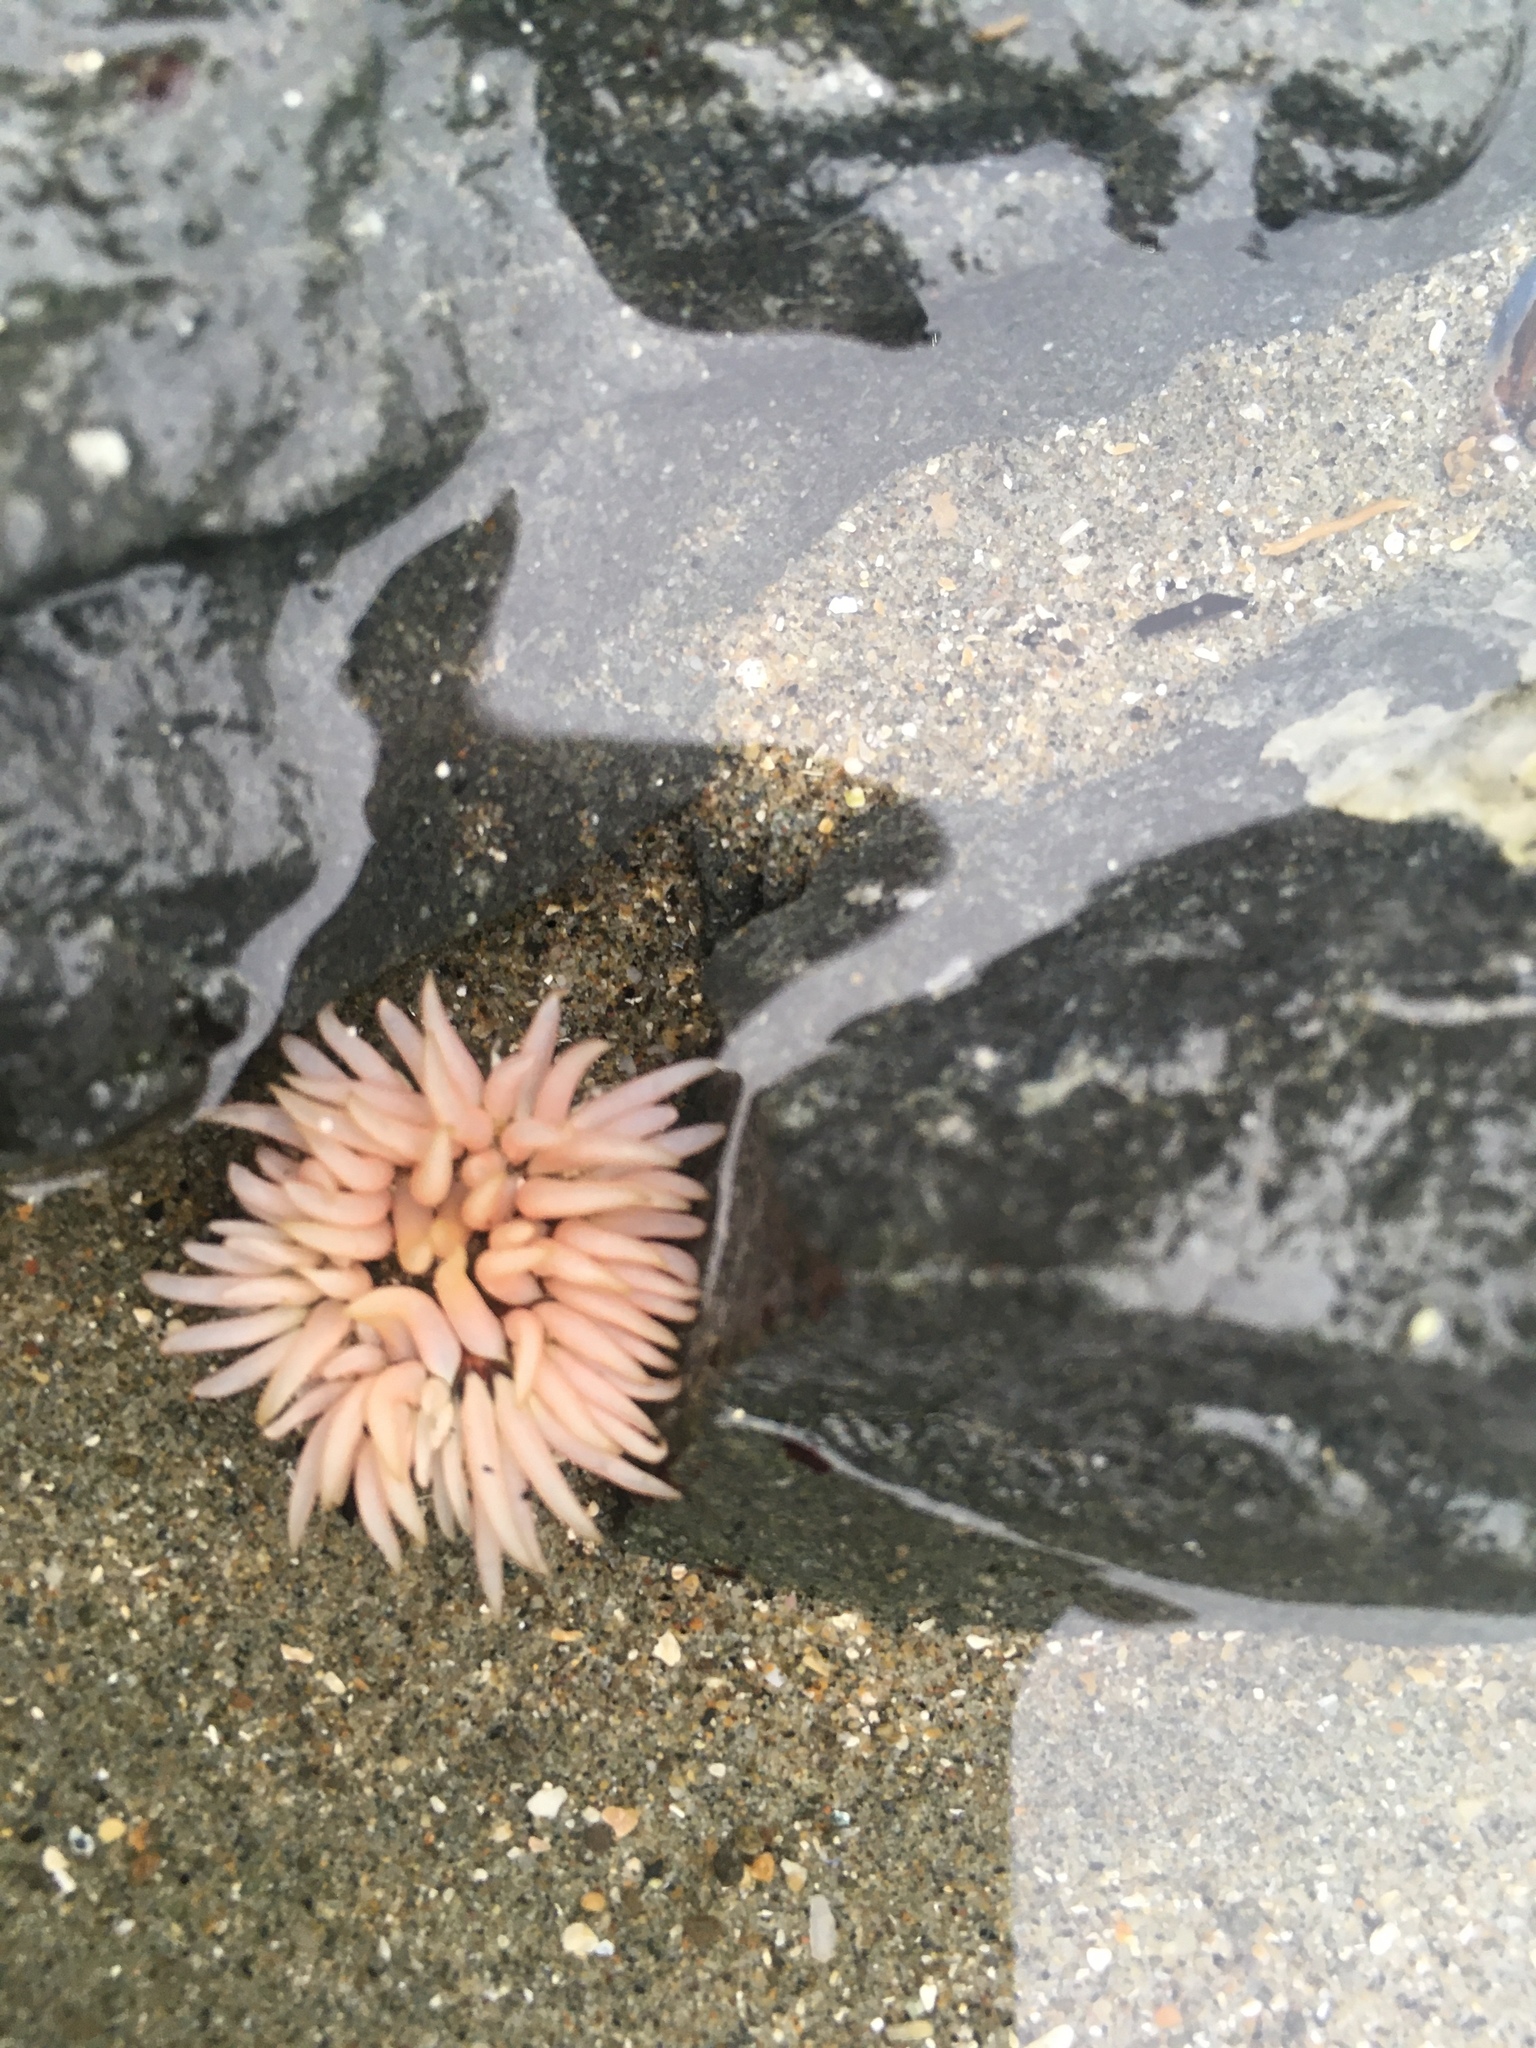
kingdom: Animalia
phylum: Cnidaria
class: Anthozoa
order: Actiniaria
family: Actiniidae
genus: Anthopleura
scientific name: Anthopleura artemisia
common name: Buried sea anemone
